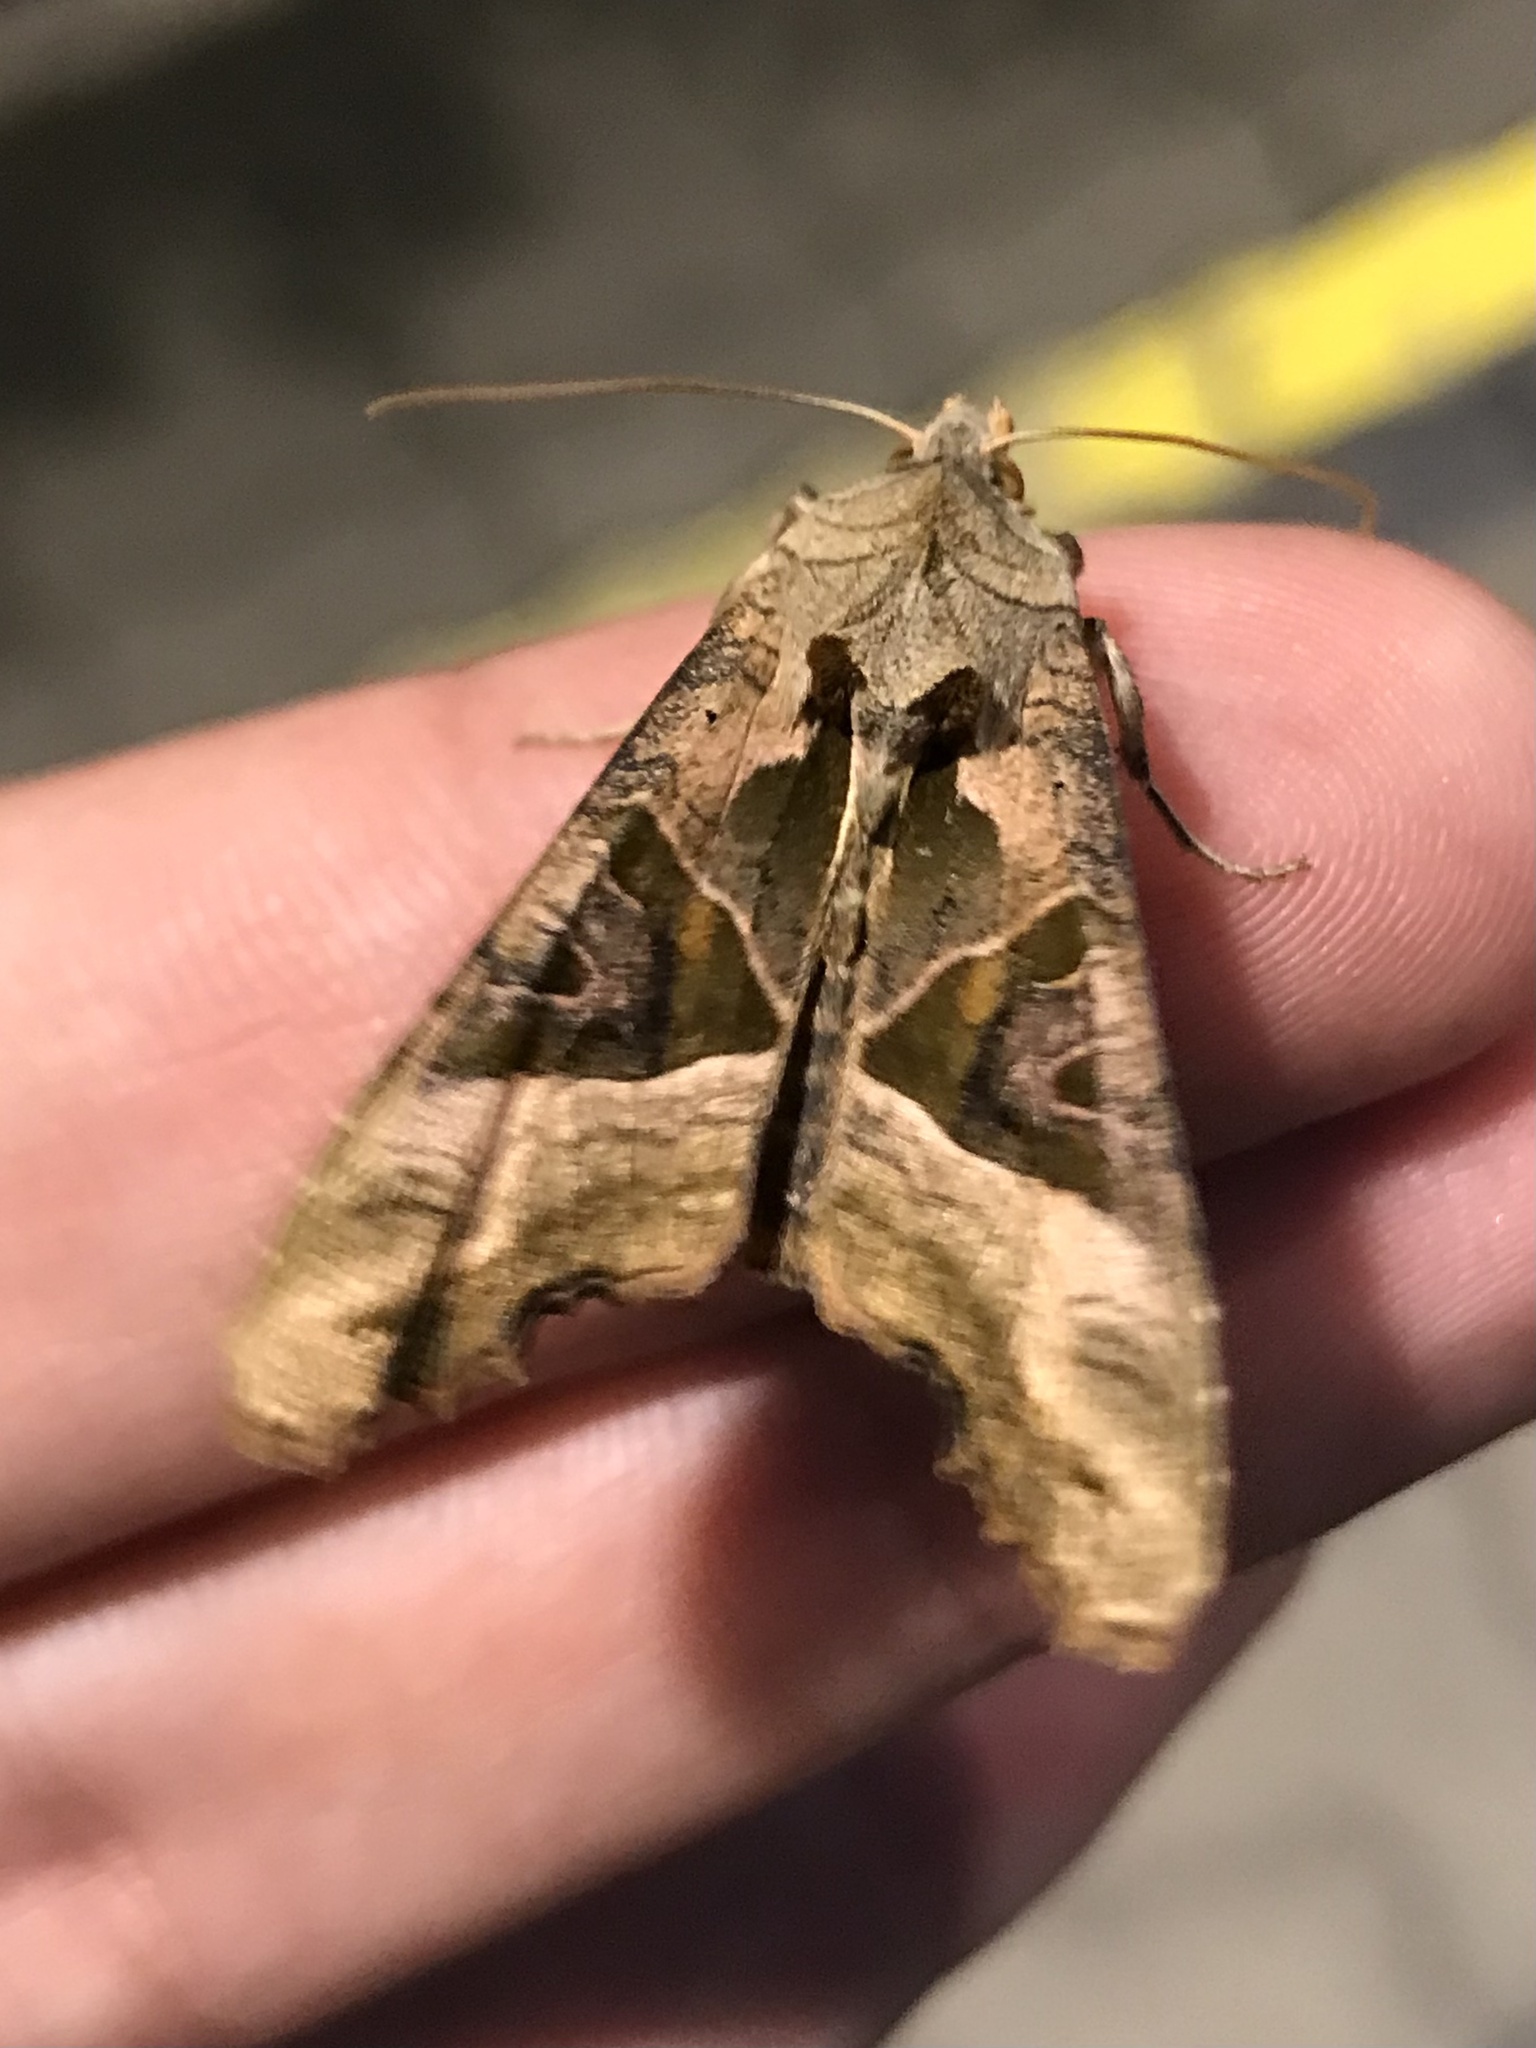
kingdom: Animalia
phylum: Arthropoda
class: Insecta
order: Lepidoptera
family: Noctuidae
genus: Phlogophora
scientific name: Phlogophora meticulosa
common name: Angle shades
